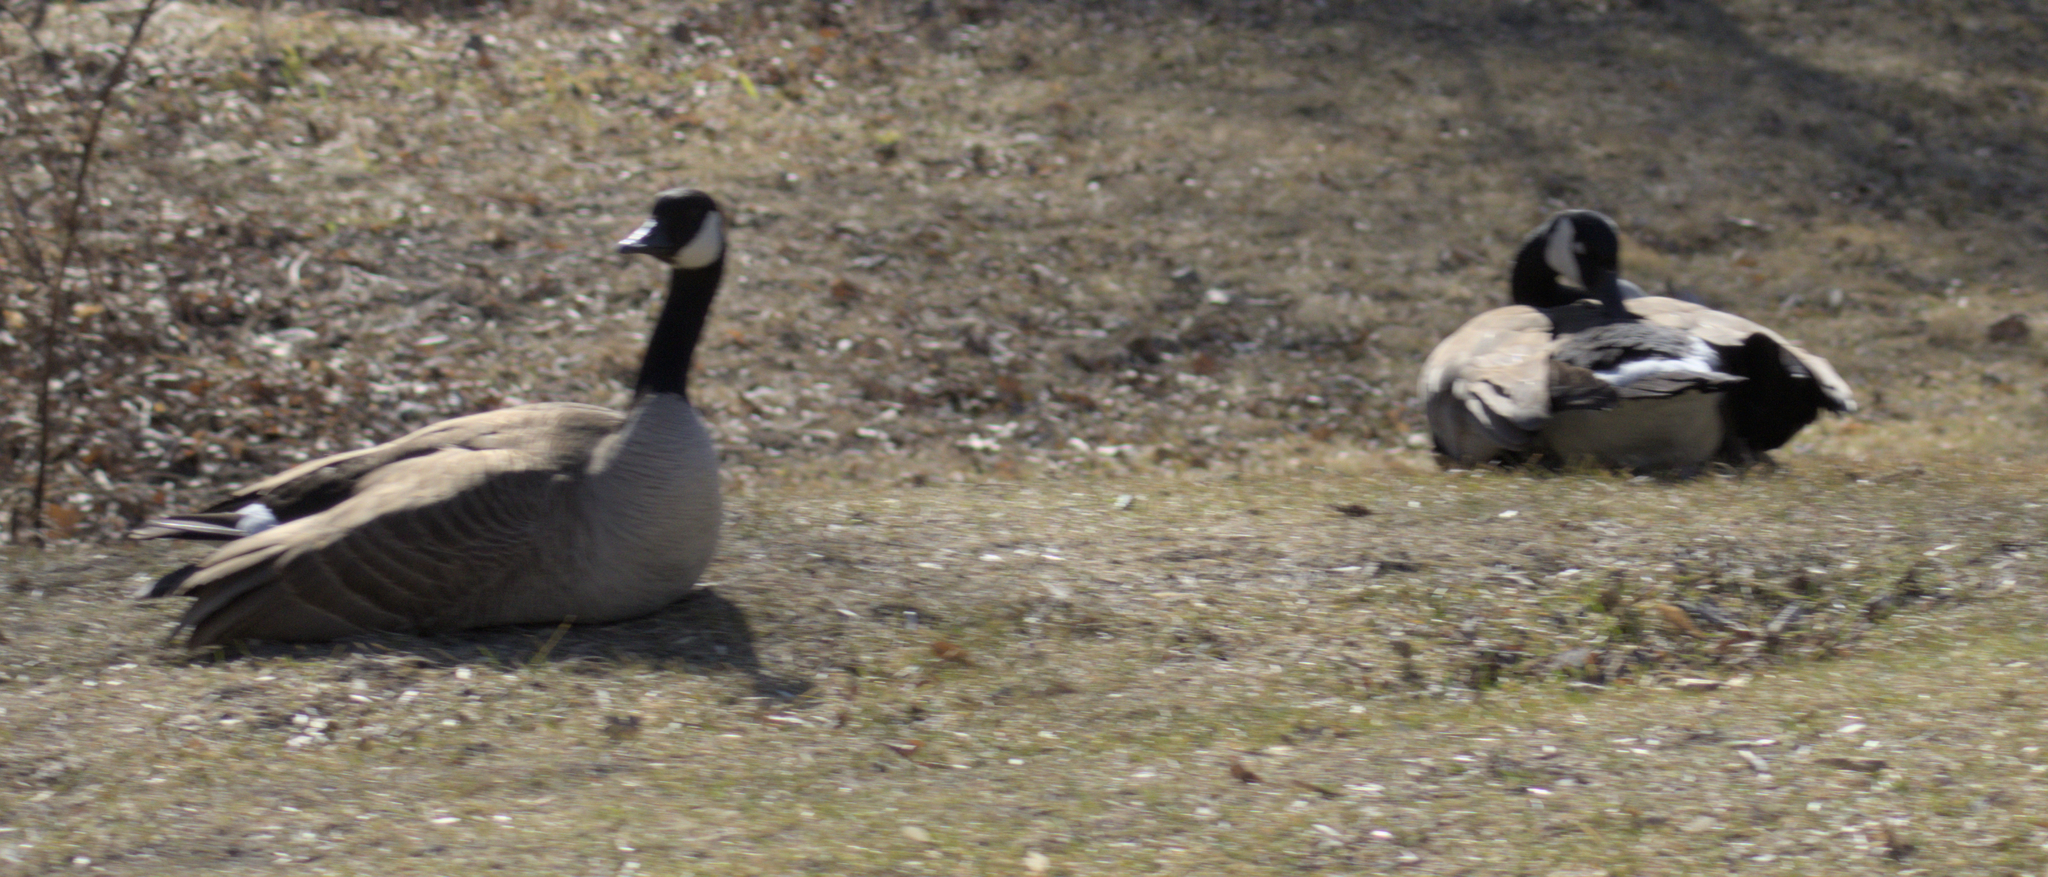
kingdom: Animalia
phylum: Chordata
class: Aves
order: Anseriformes
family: Anatidae
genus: Branta
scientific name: Branta canadensis
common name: Canada goose
